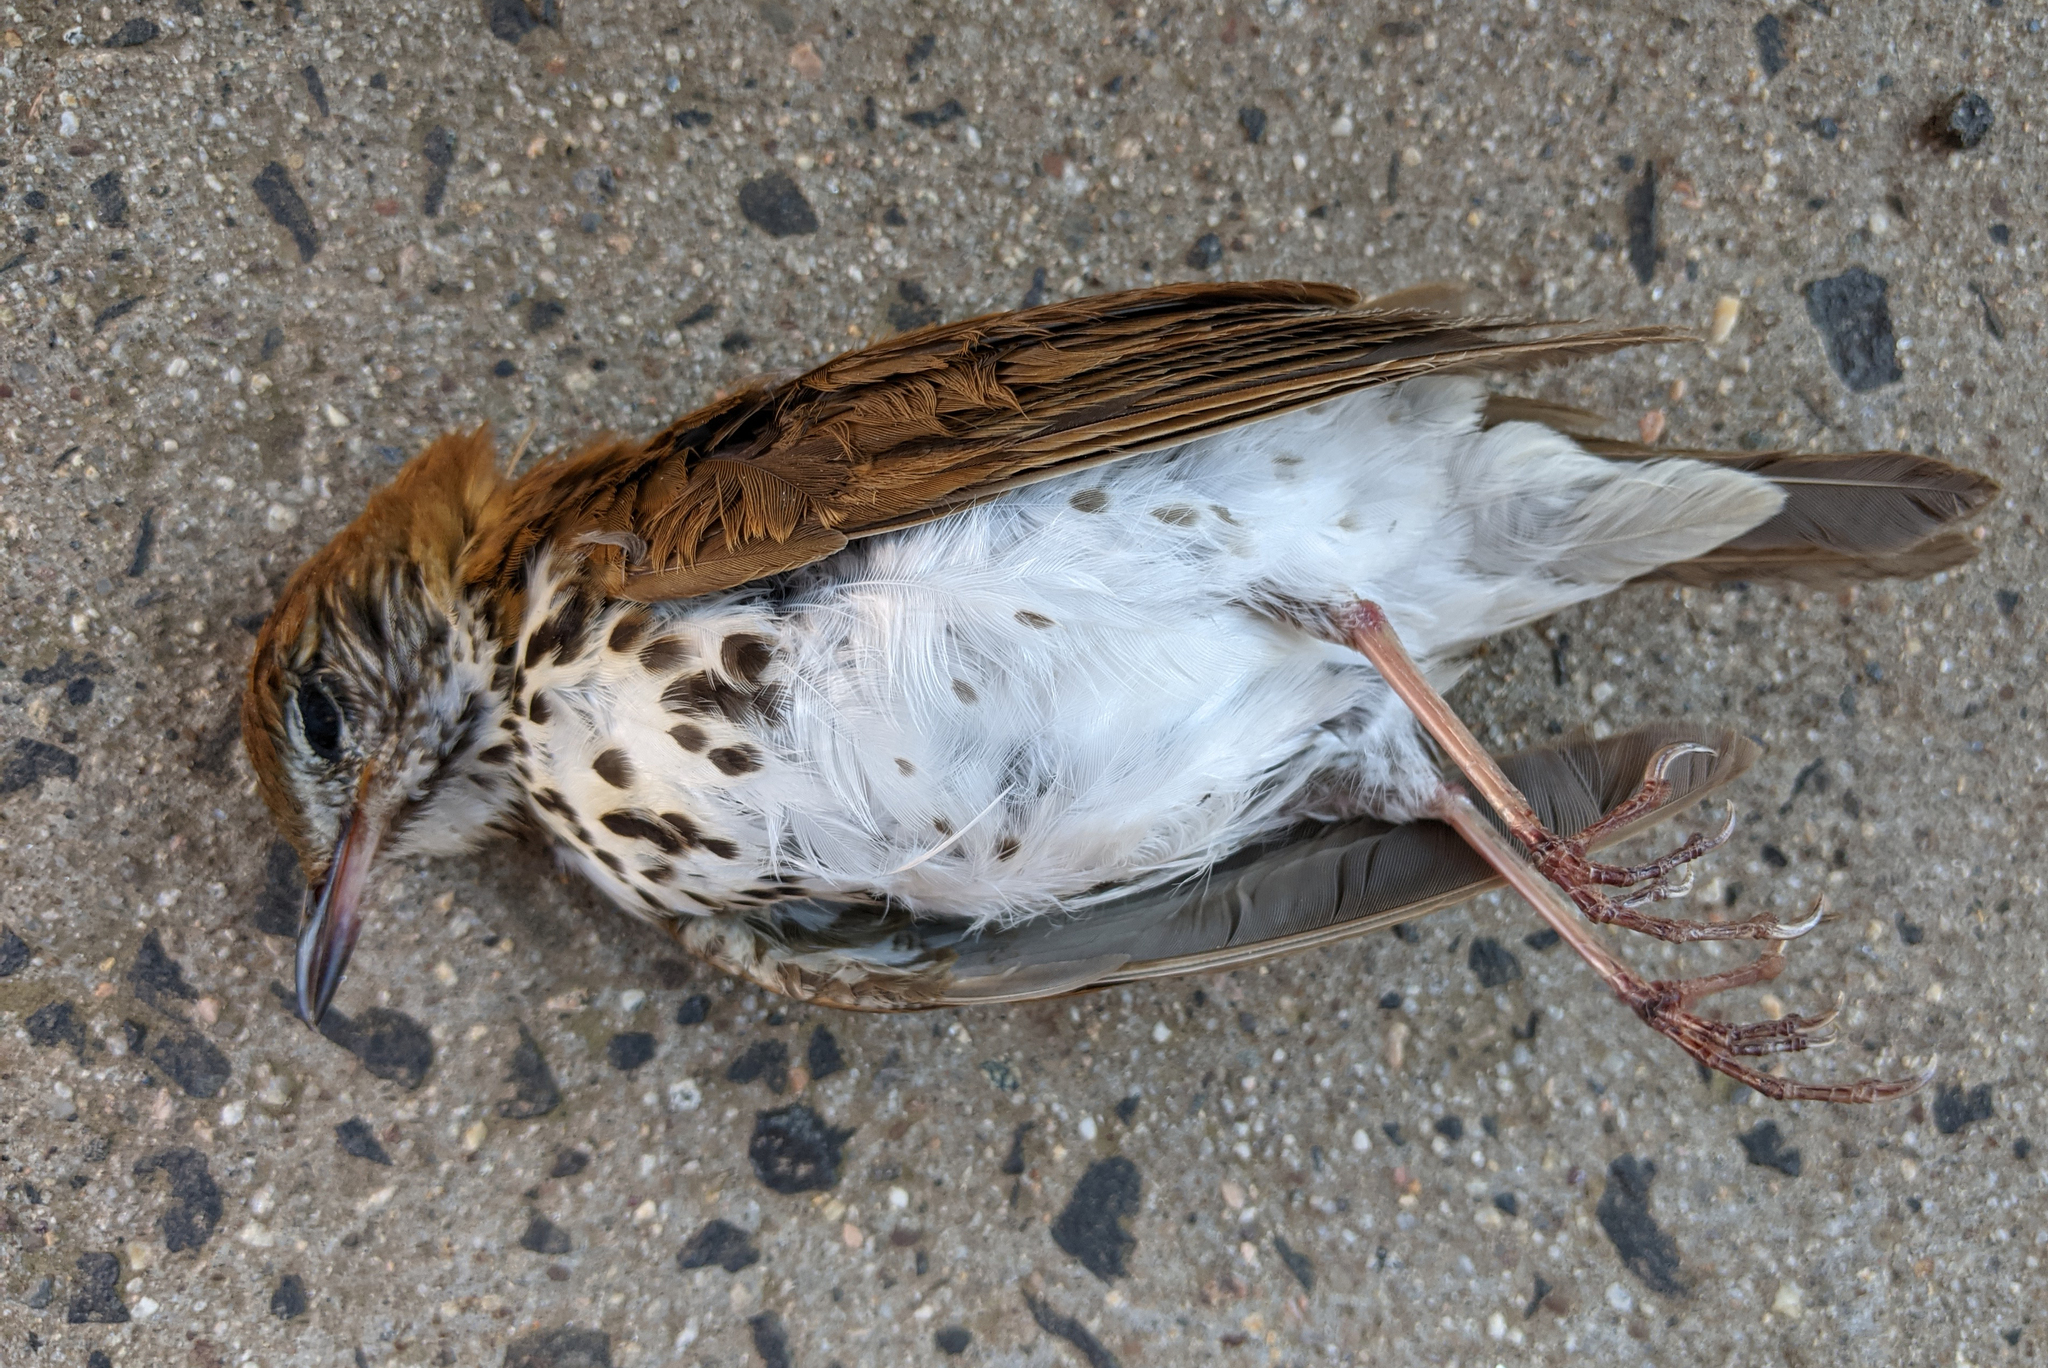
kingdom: Animalia
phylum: Chordata
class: Aves
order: Passeriformes
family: Turdidae
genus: Hylocichla
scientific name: Hylocichla mustelina
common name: Wood thrush
